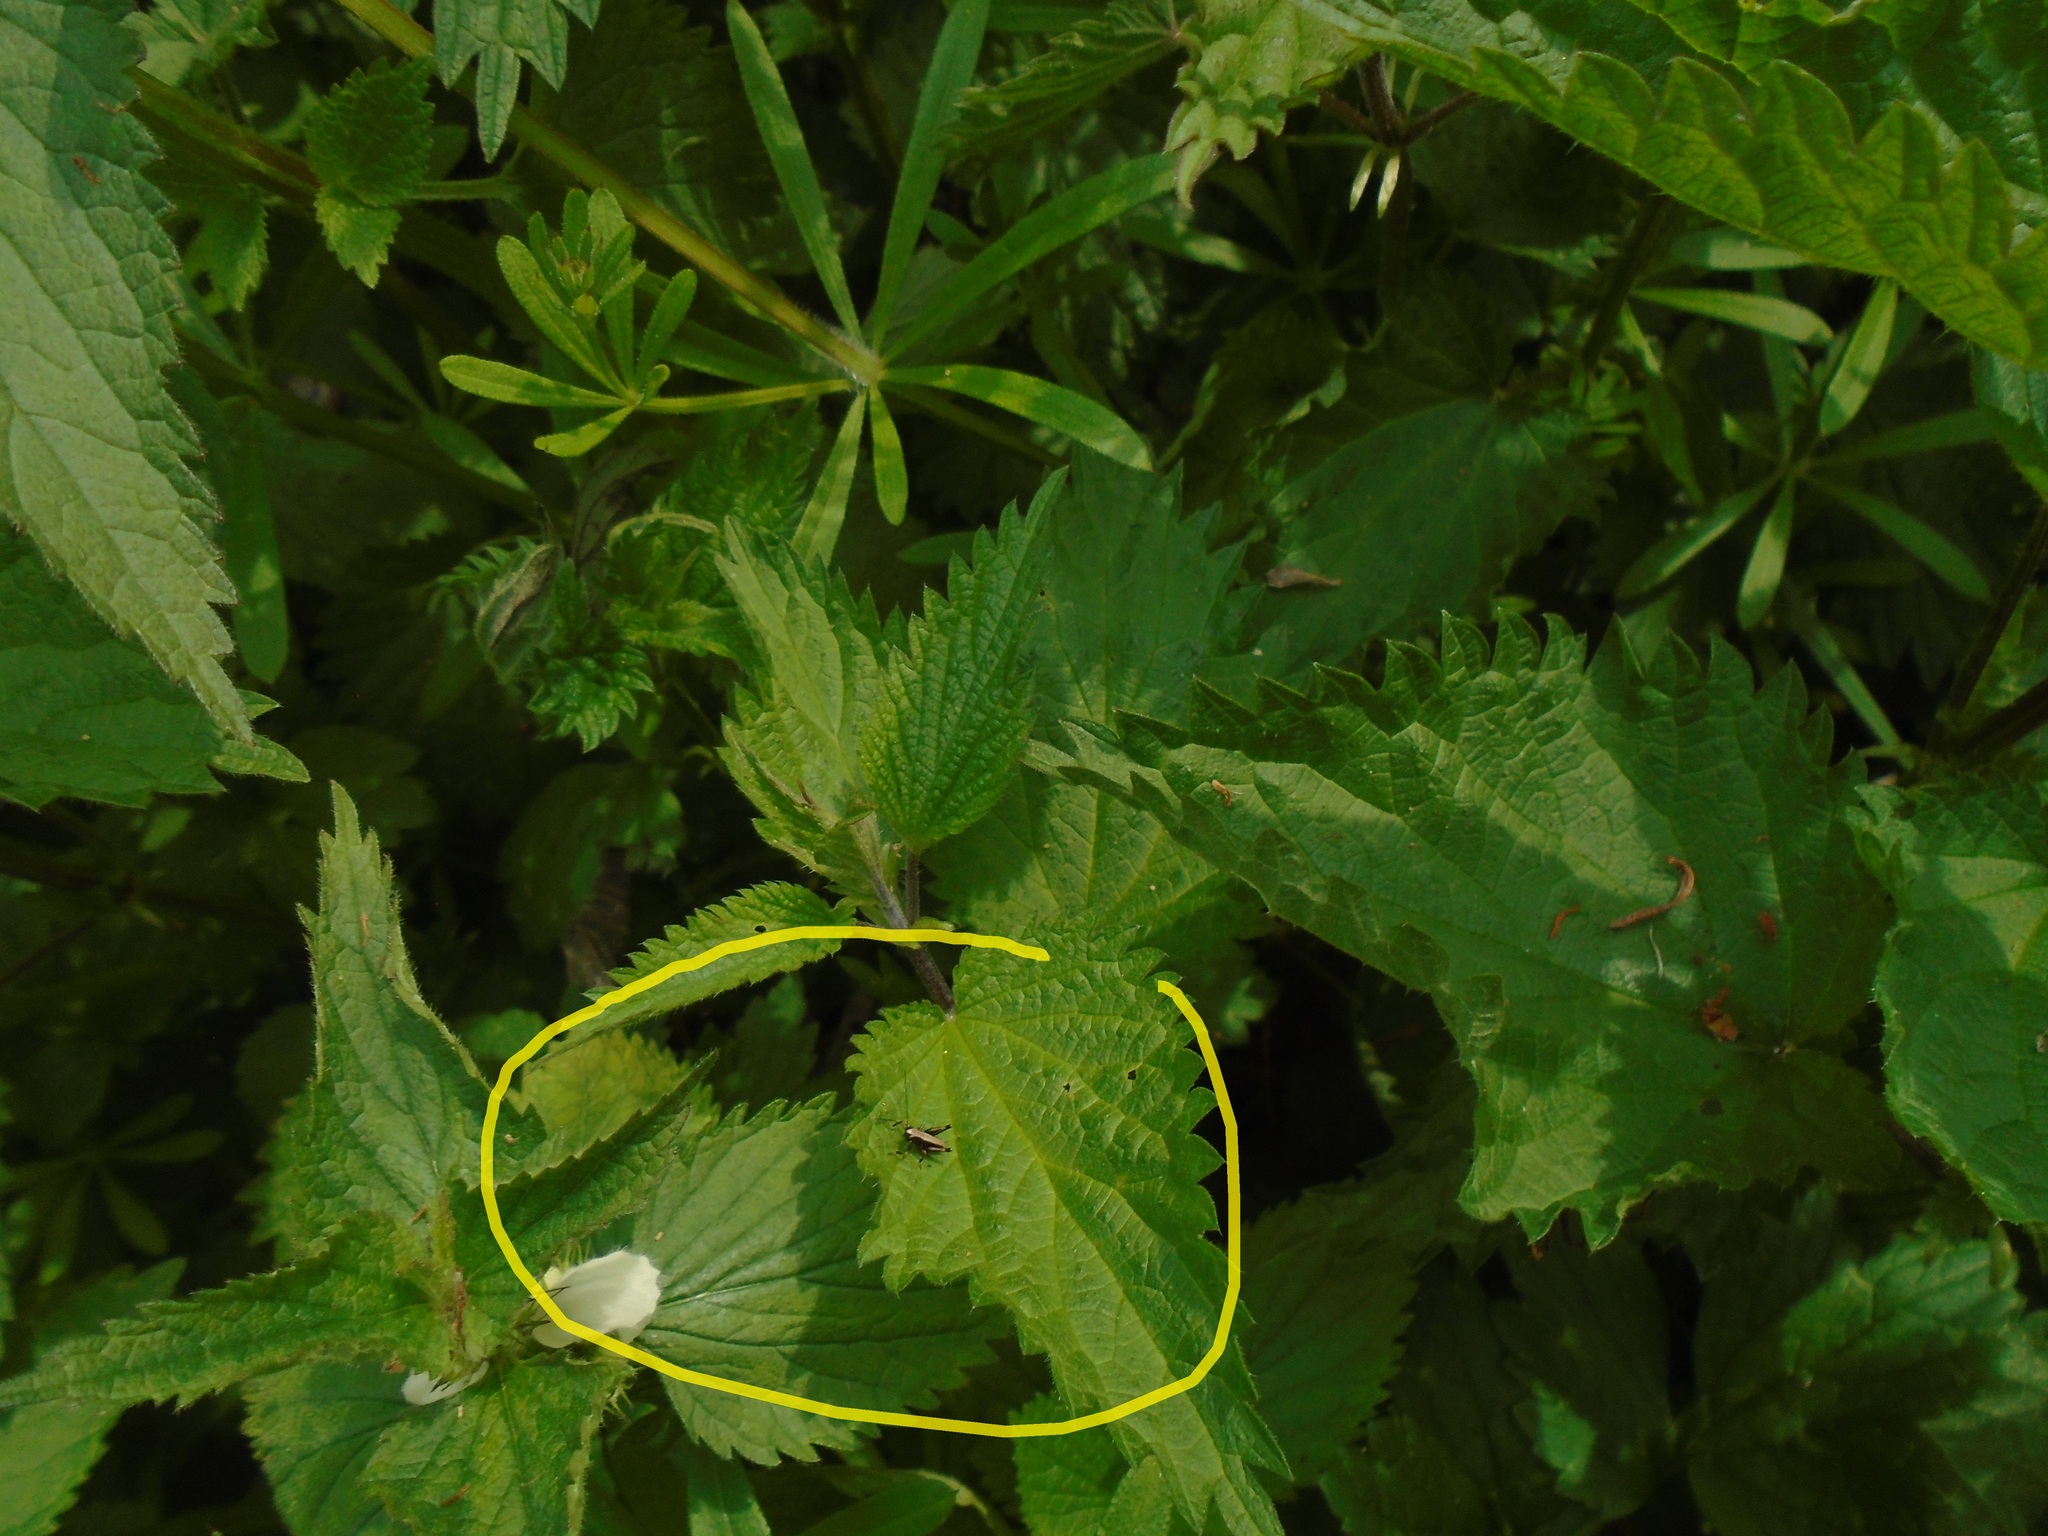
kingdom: Animalia
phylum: Arthropoda
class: Insecta
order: Orthoptera
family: Tettigoniidae
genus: Pholidoptera
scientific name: Pholidoptera griseoaptera
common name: Dark bush-cricket
